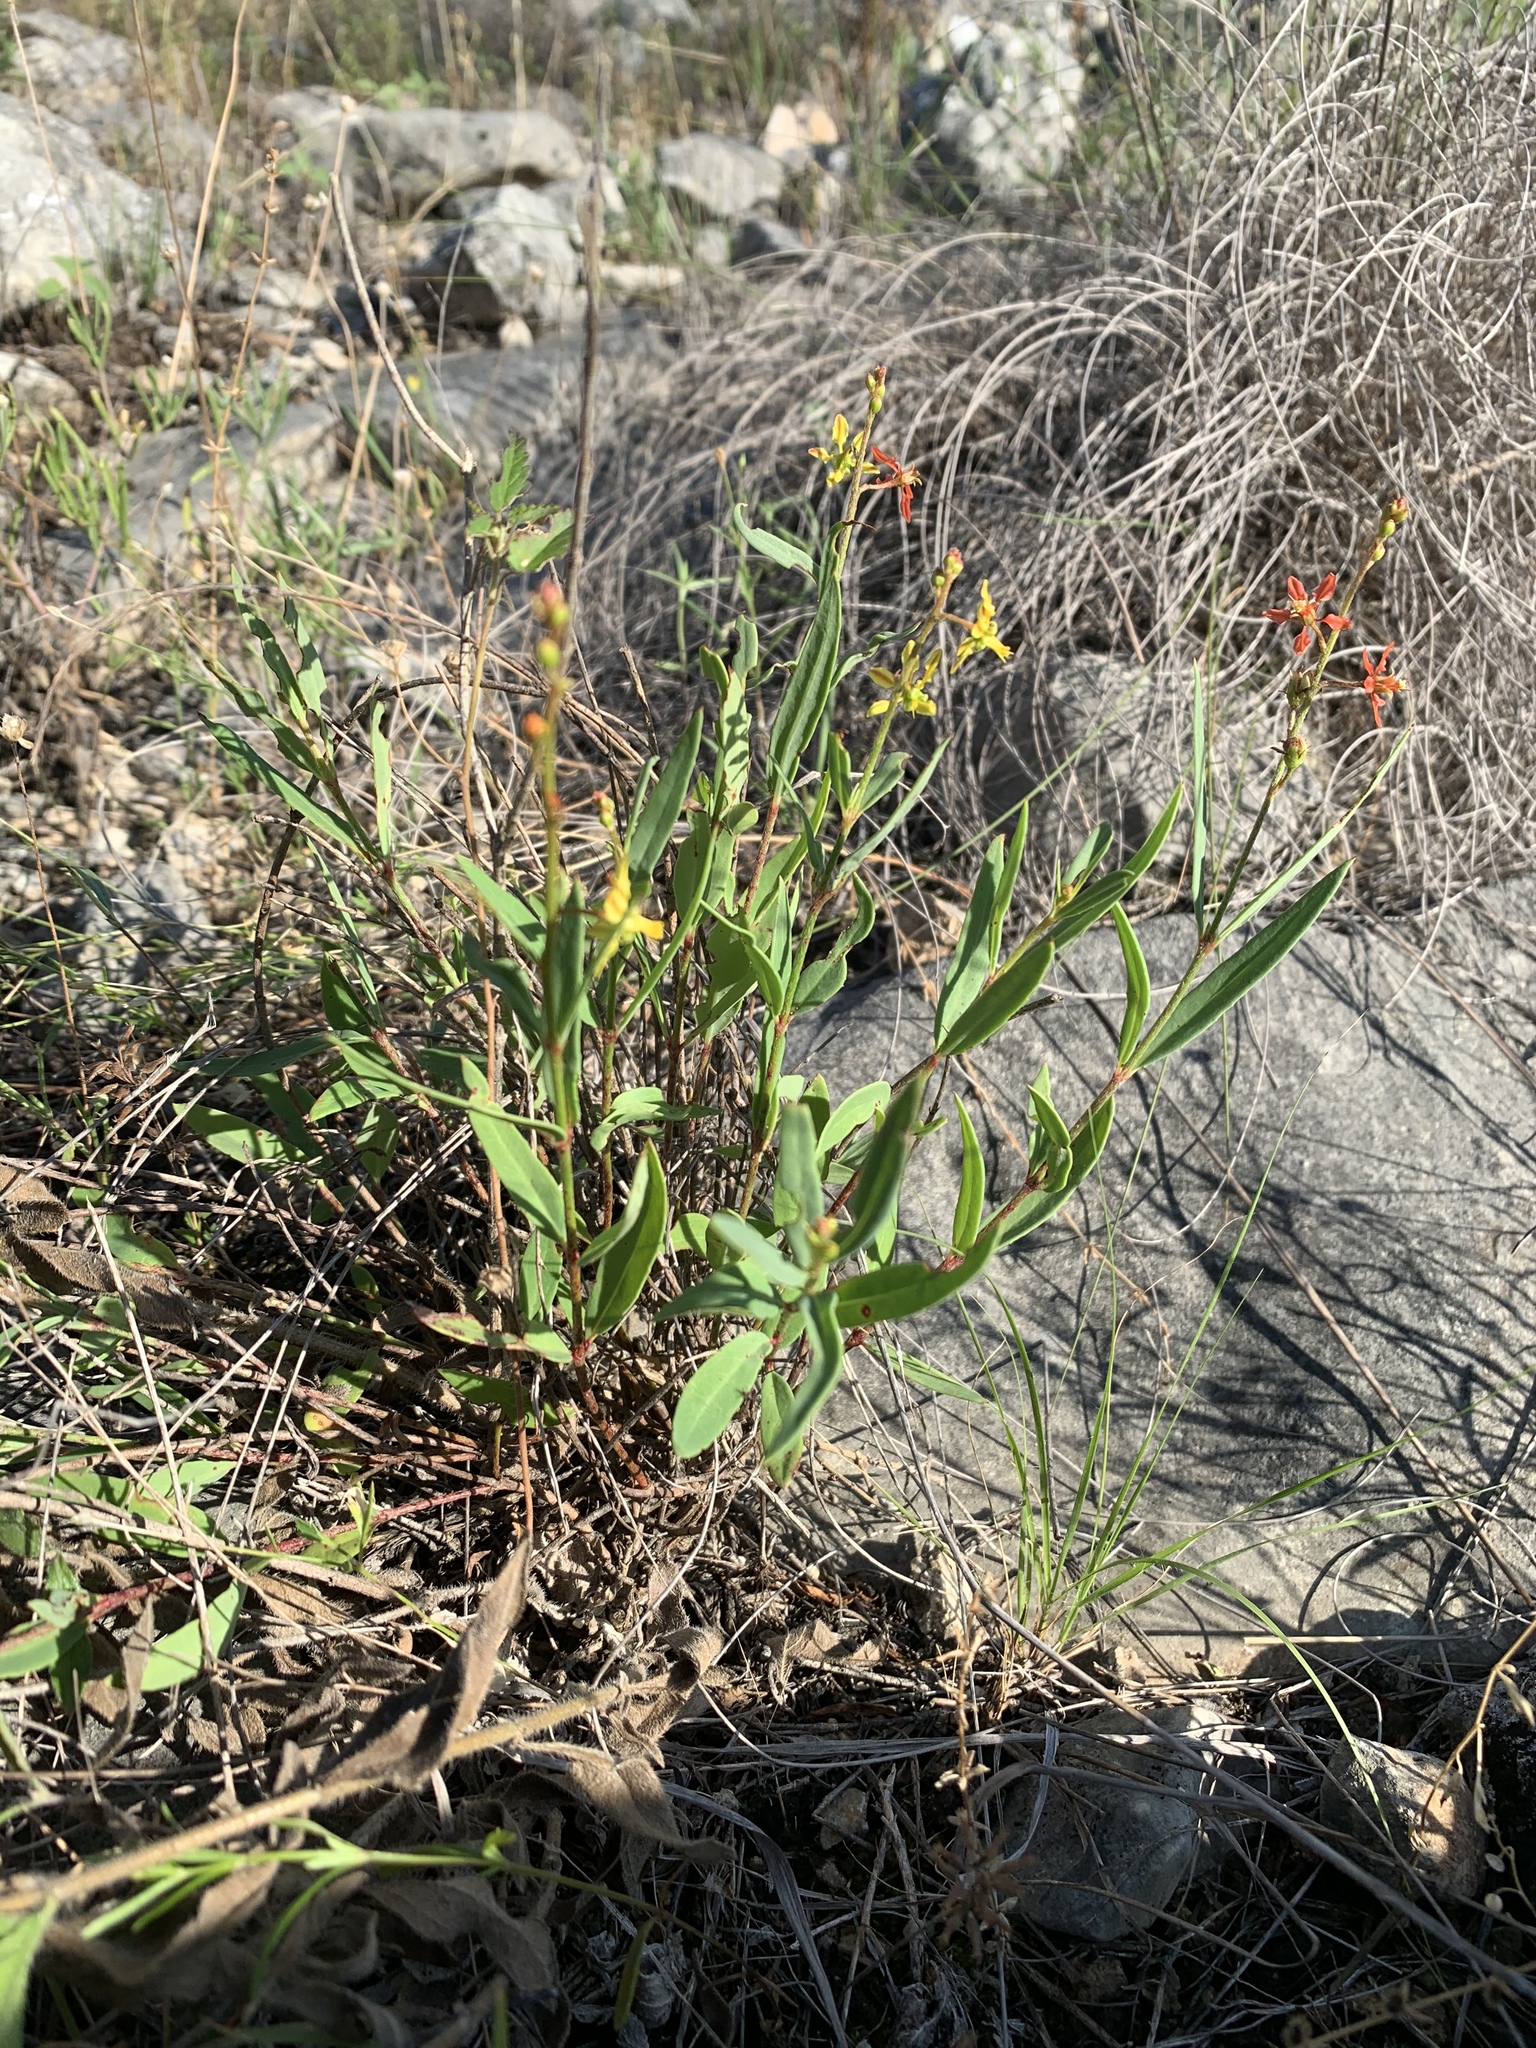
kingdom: Plantae
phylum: Tracheophyta
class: Magnoliopsida
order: Malpighiales
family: Malpighiaceae
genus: Galphimia
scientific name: Galphimia angustifolia
